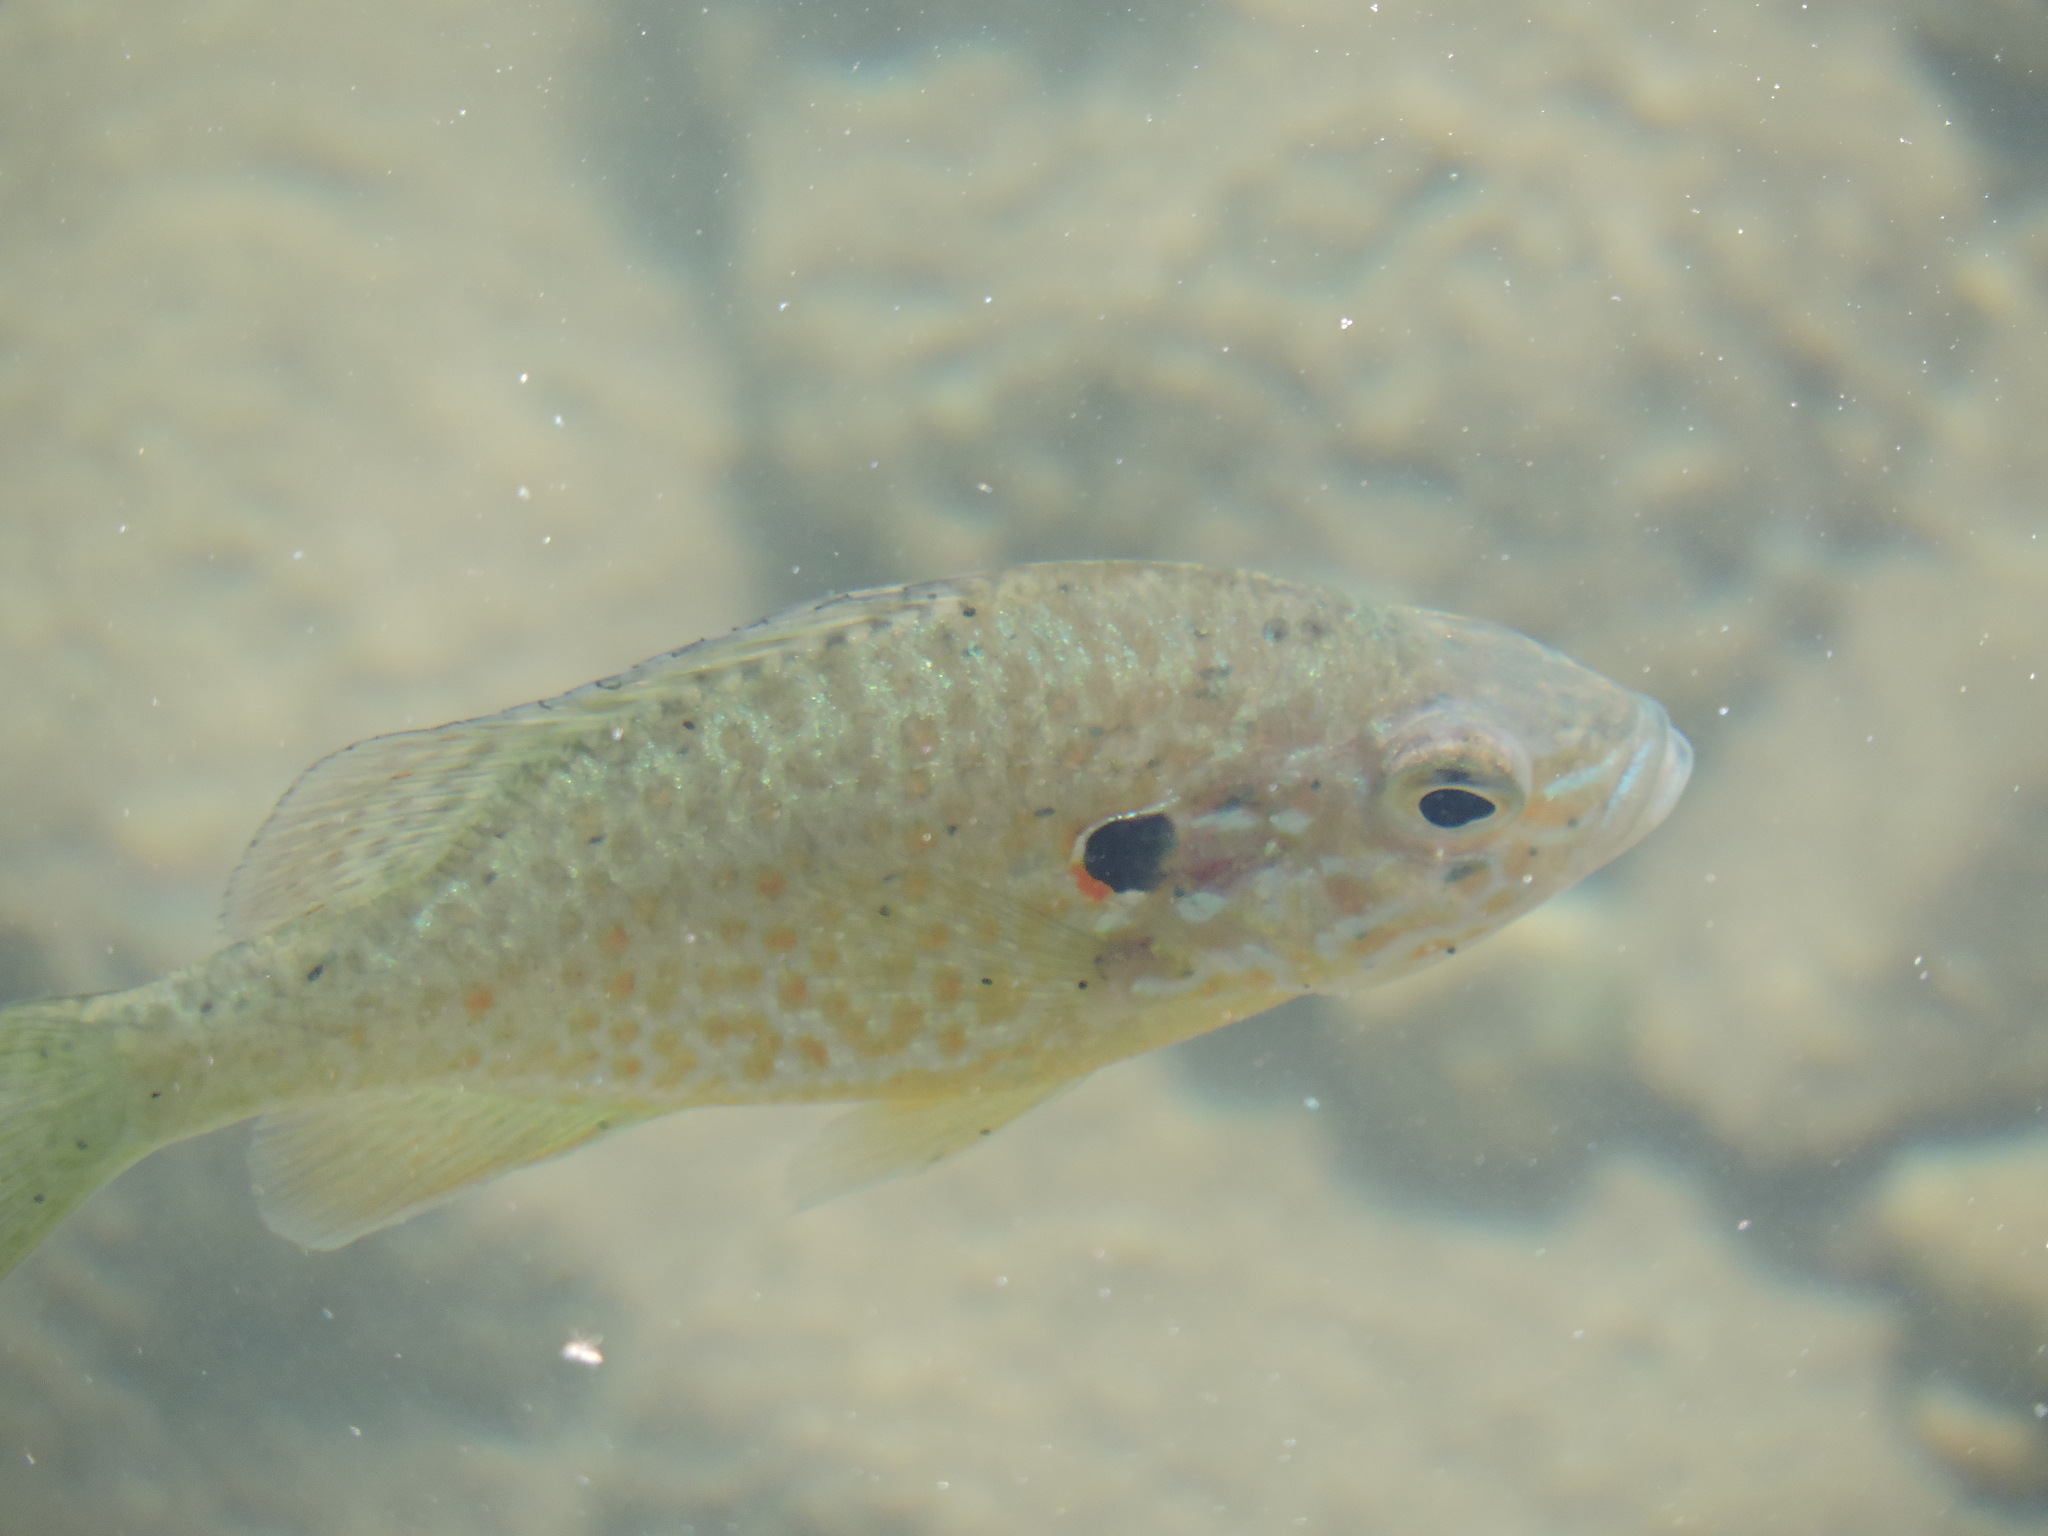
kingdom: Animalia
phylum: Chordata
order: Perciformes
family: Centrarchidae
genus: Lepomis
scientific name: Lepomis gibbosus
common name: Pumpkinseed
